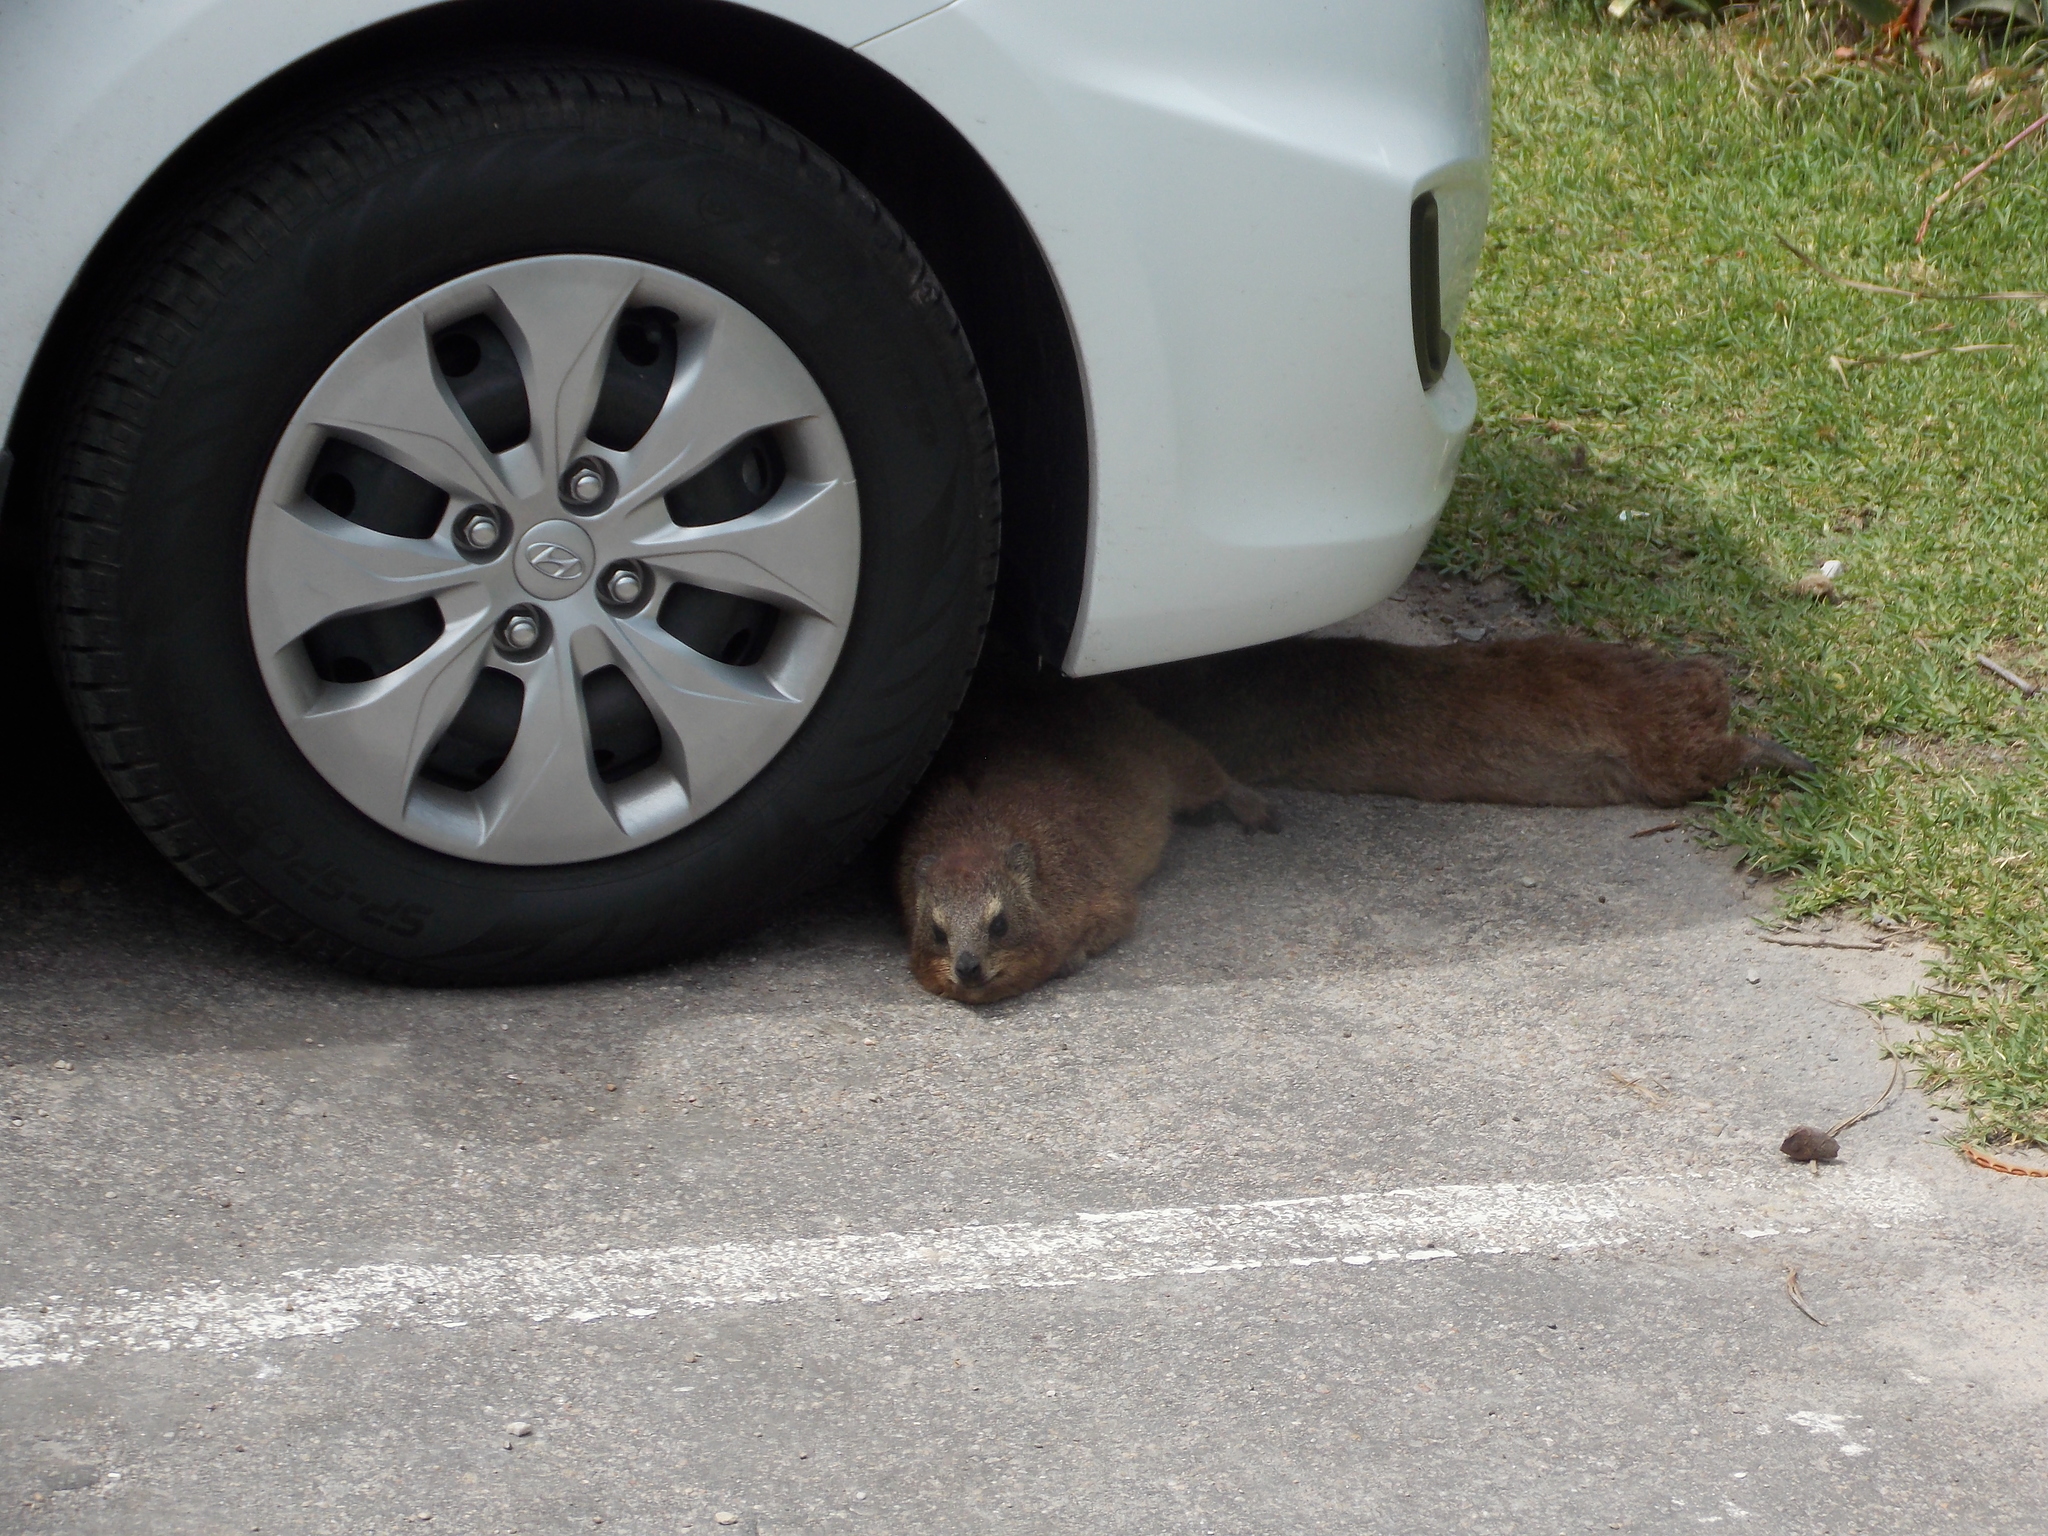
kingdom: Animalia
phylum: Chordata
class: Mammalia
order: Hyracoidea
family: Procaviidae
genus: Procavia
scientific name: Procavia capensis
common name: Rock hyrax
